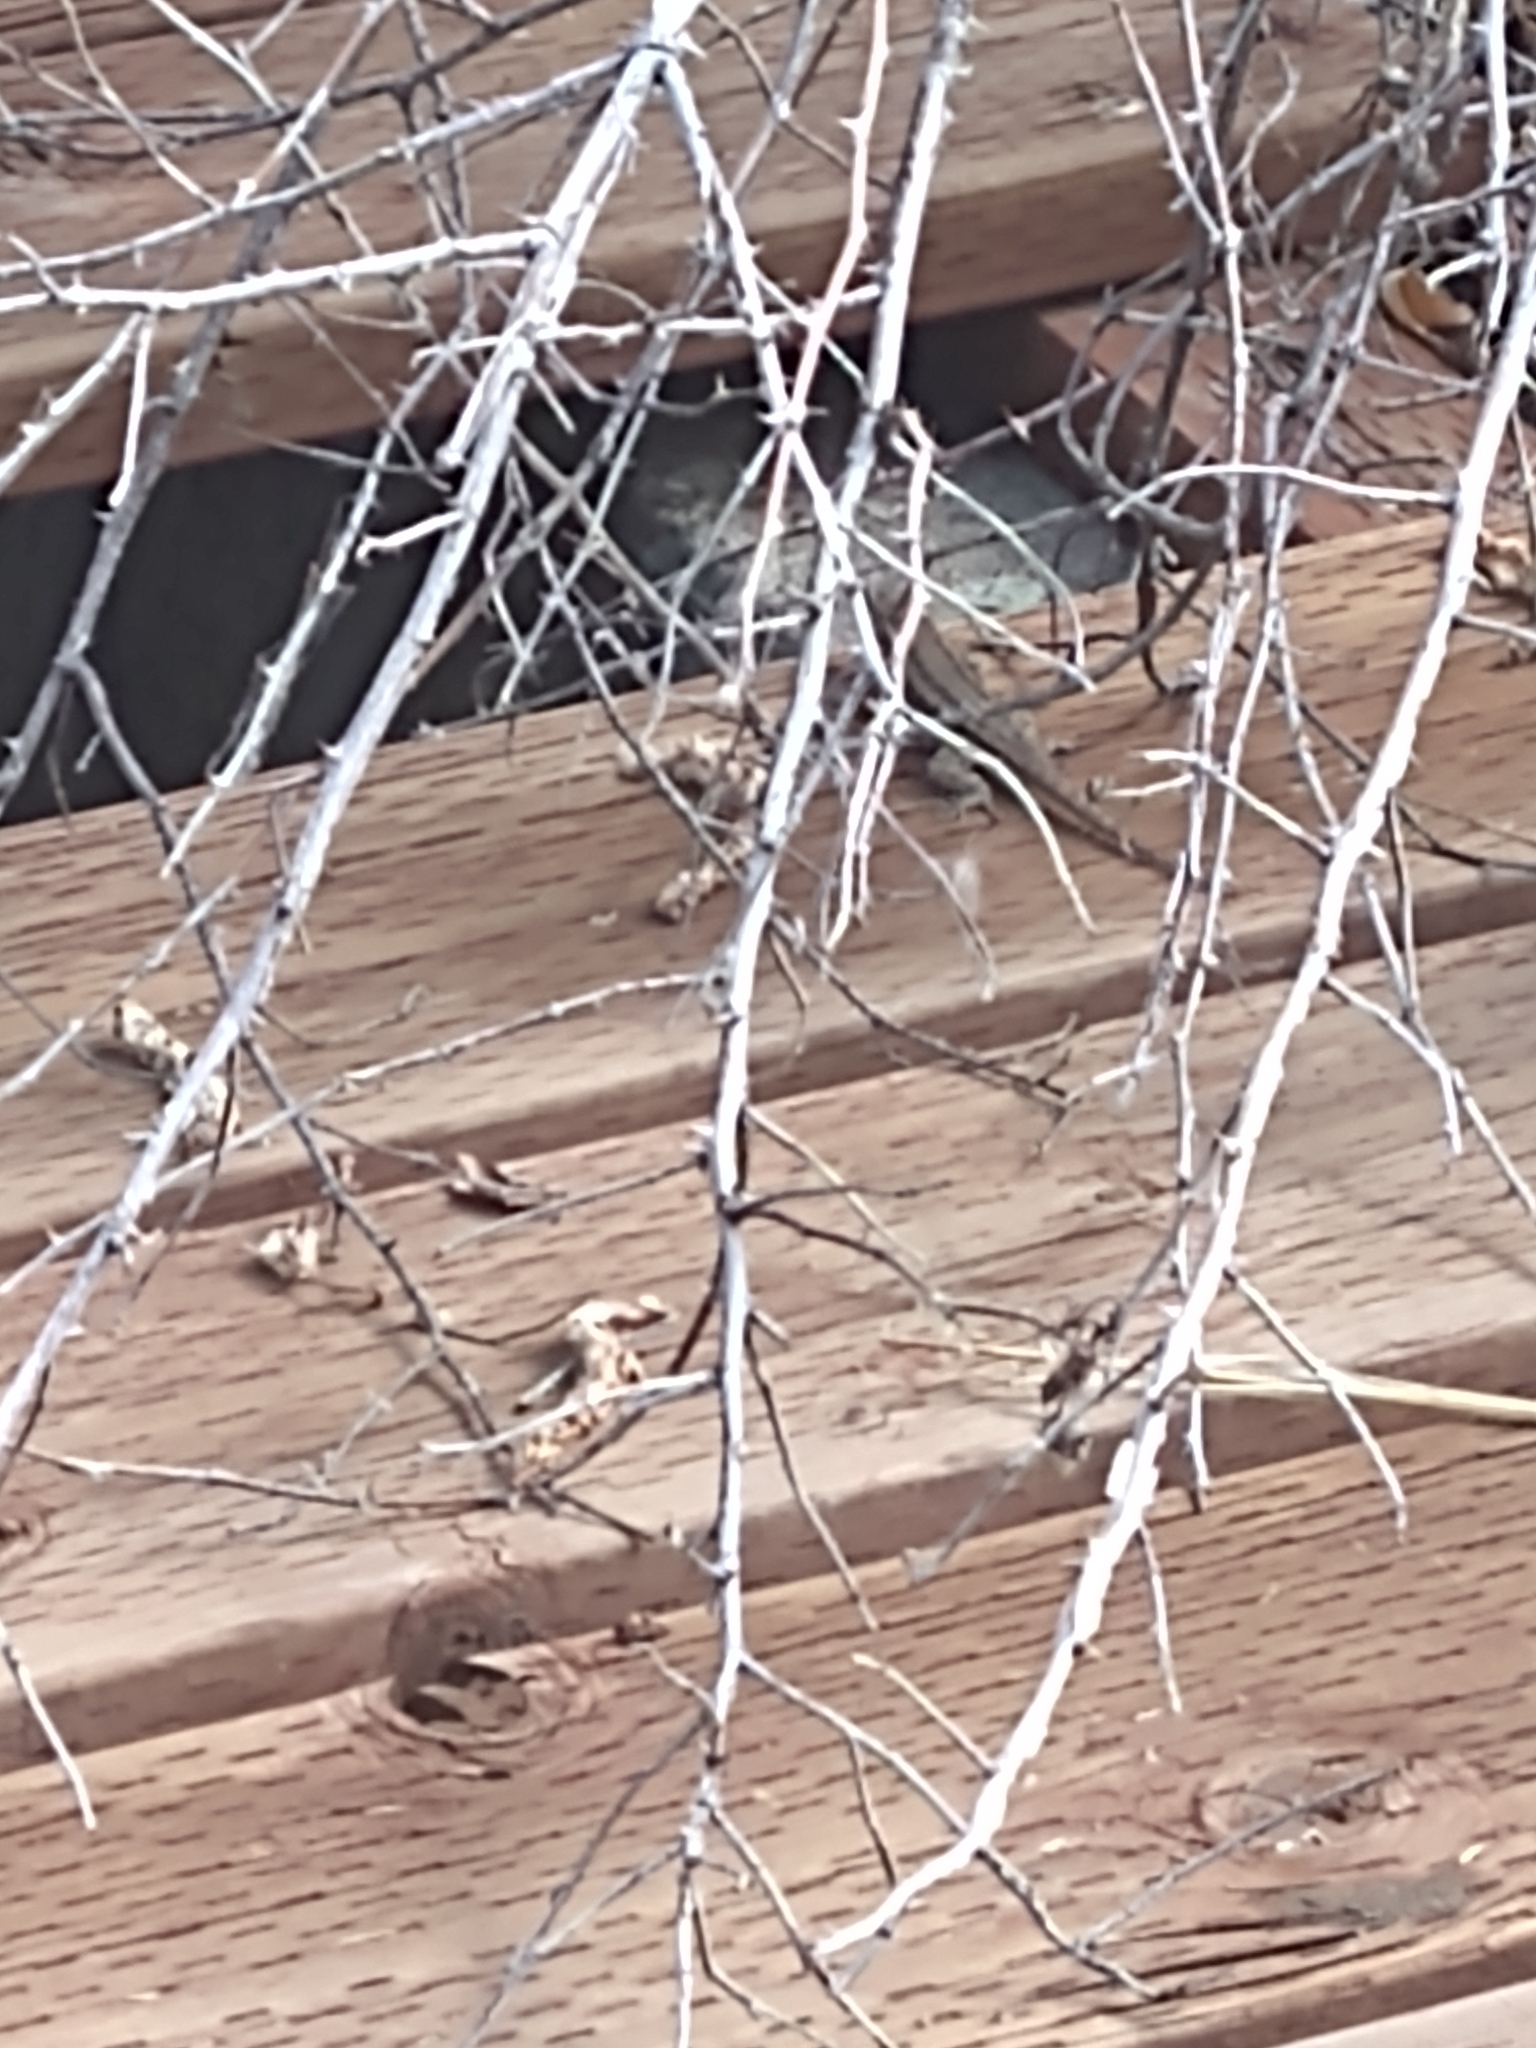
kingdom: Animalia
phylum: Chordata
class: Squamata
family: Phrynosomatidae
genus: Sceloporus
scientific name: Sceloporus occidentalis
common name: Western fence lizard
